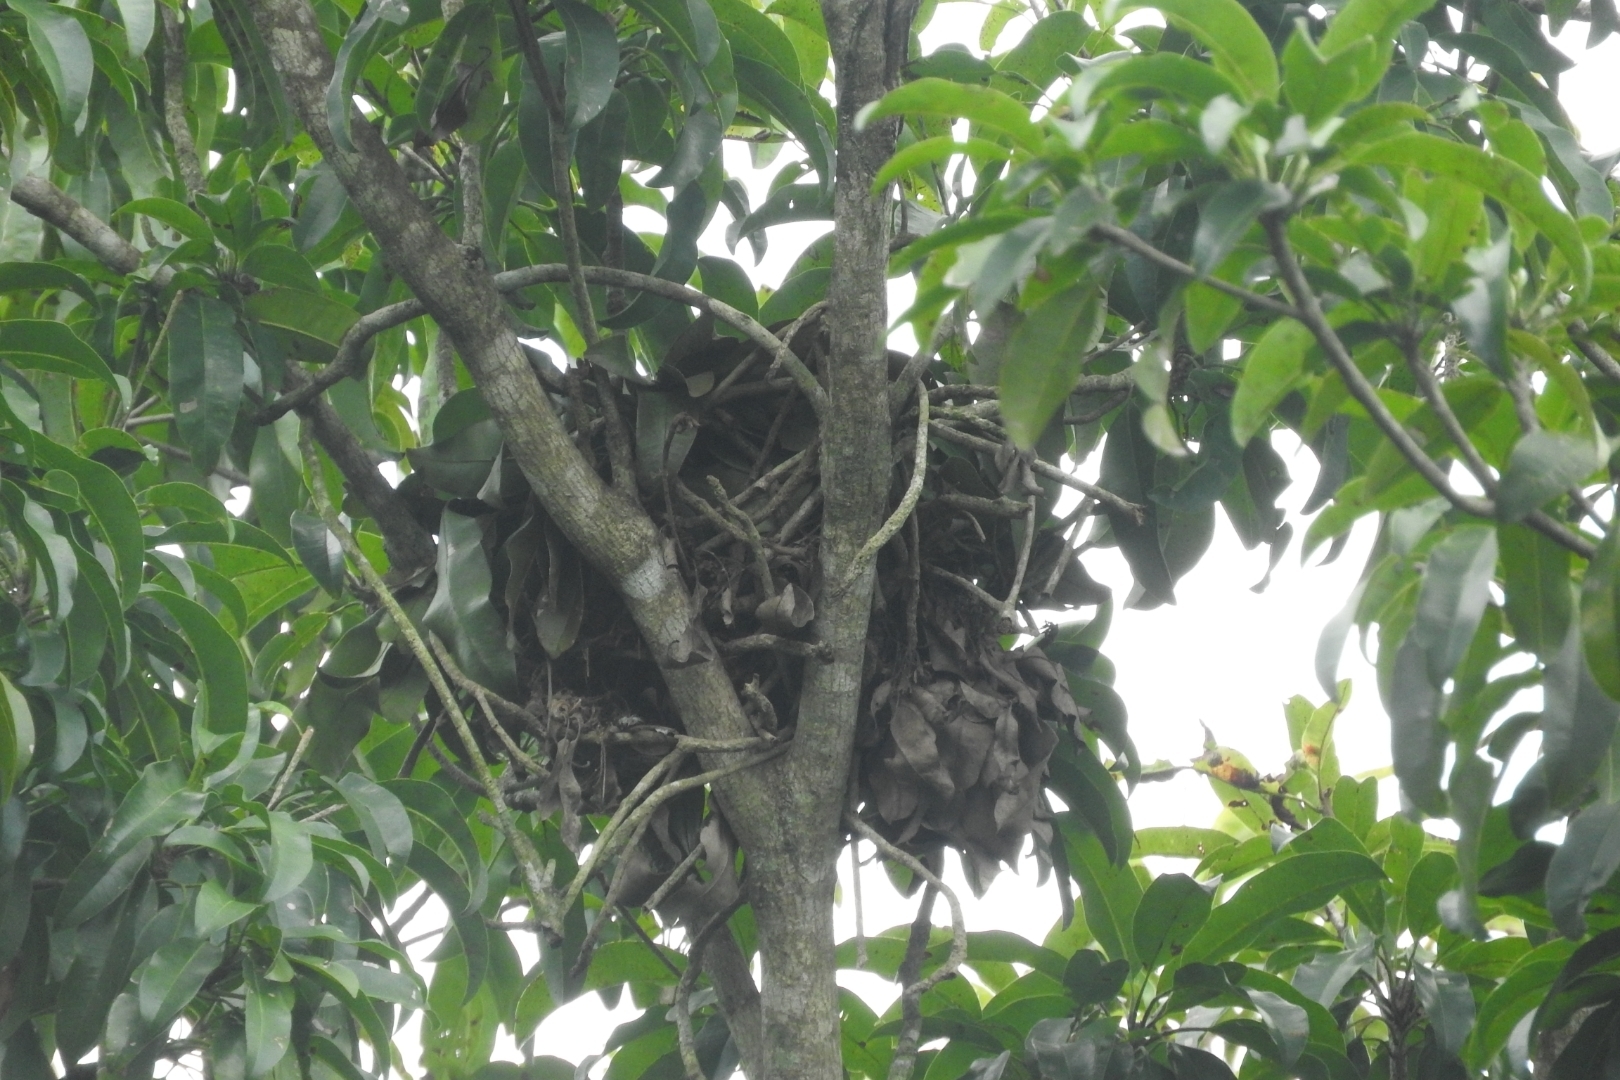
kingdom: Animalia
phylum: Chordata
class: Mammalia
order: Rodentia
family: Sciuridae
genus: Sciurus
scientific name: Sciurus yucatanensis
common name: Yucatan squirrel
